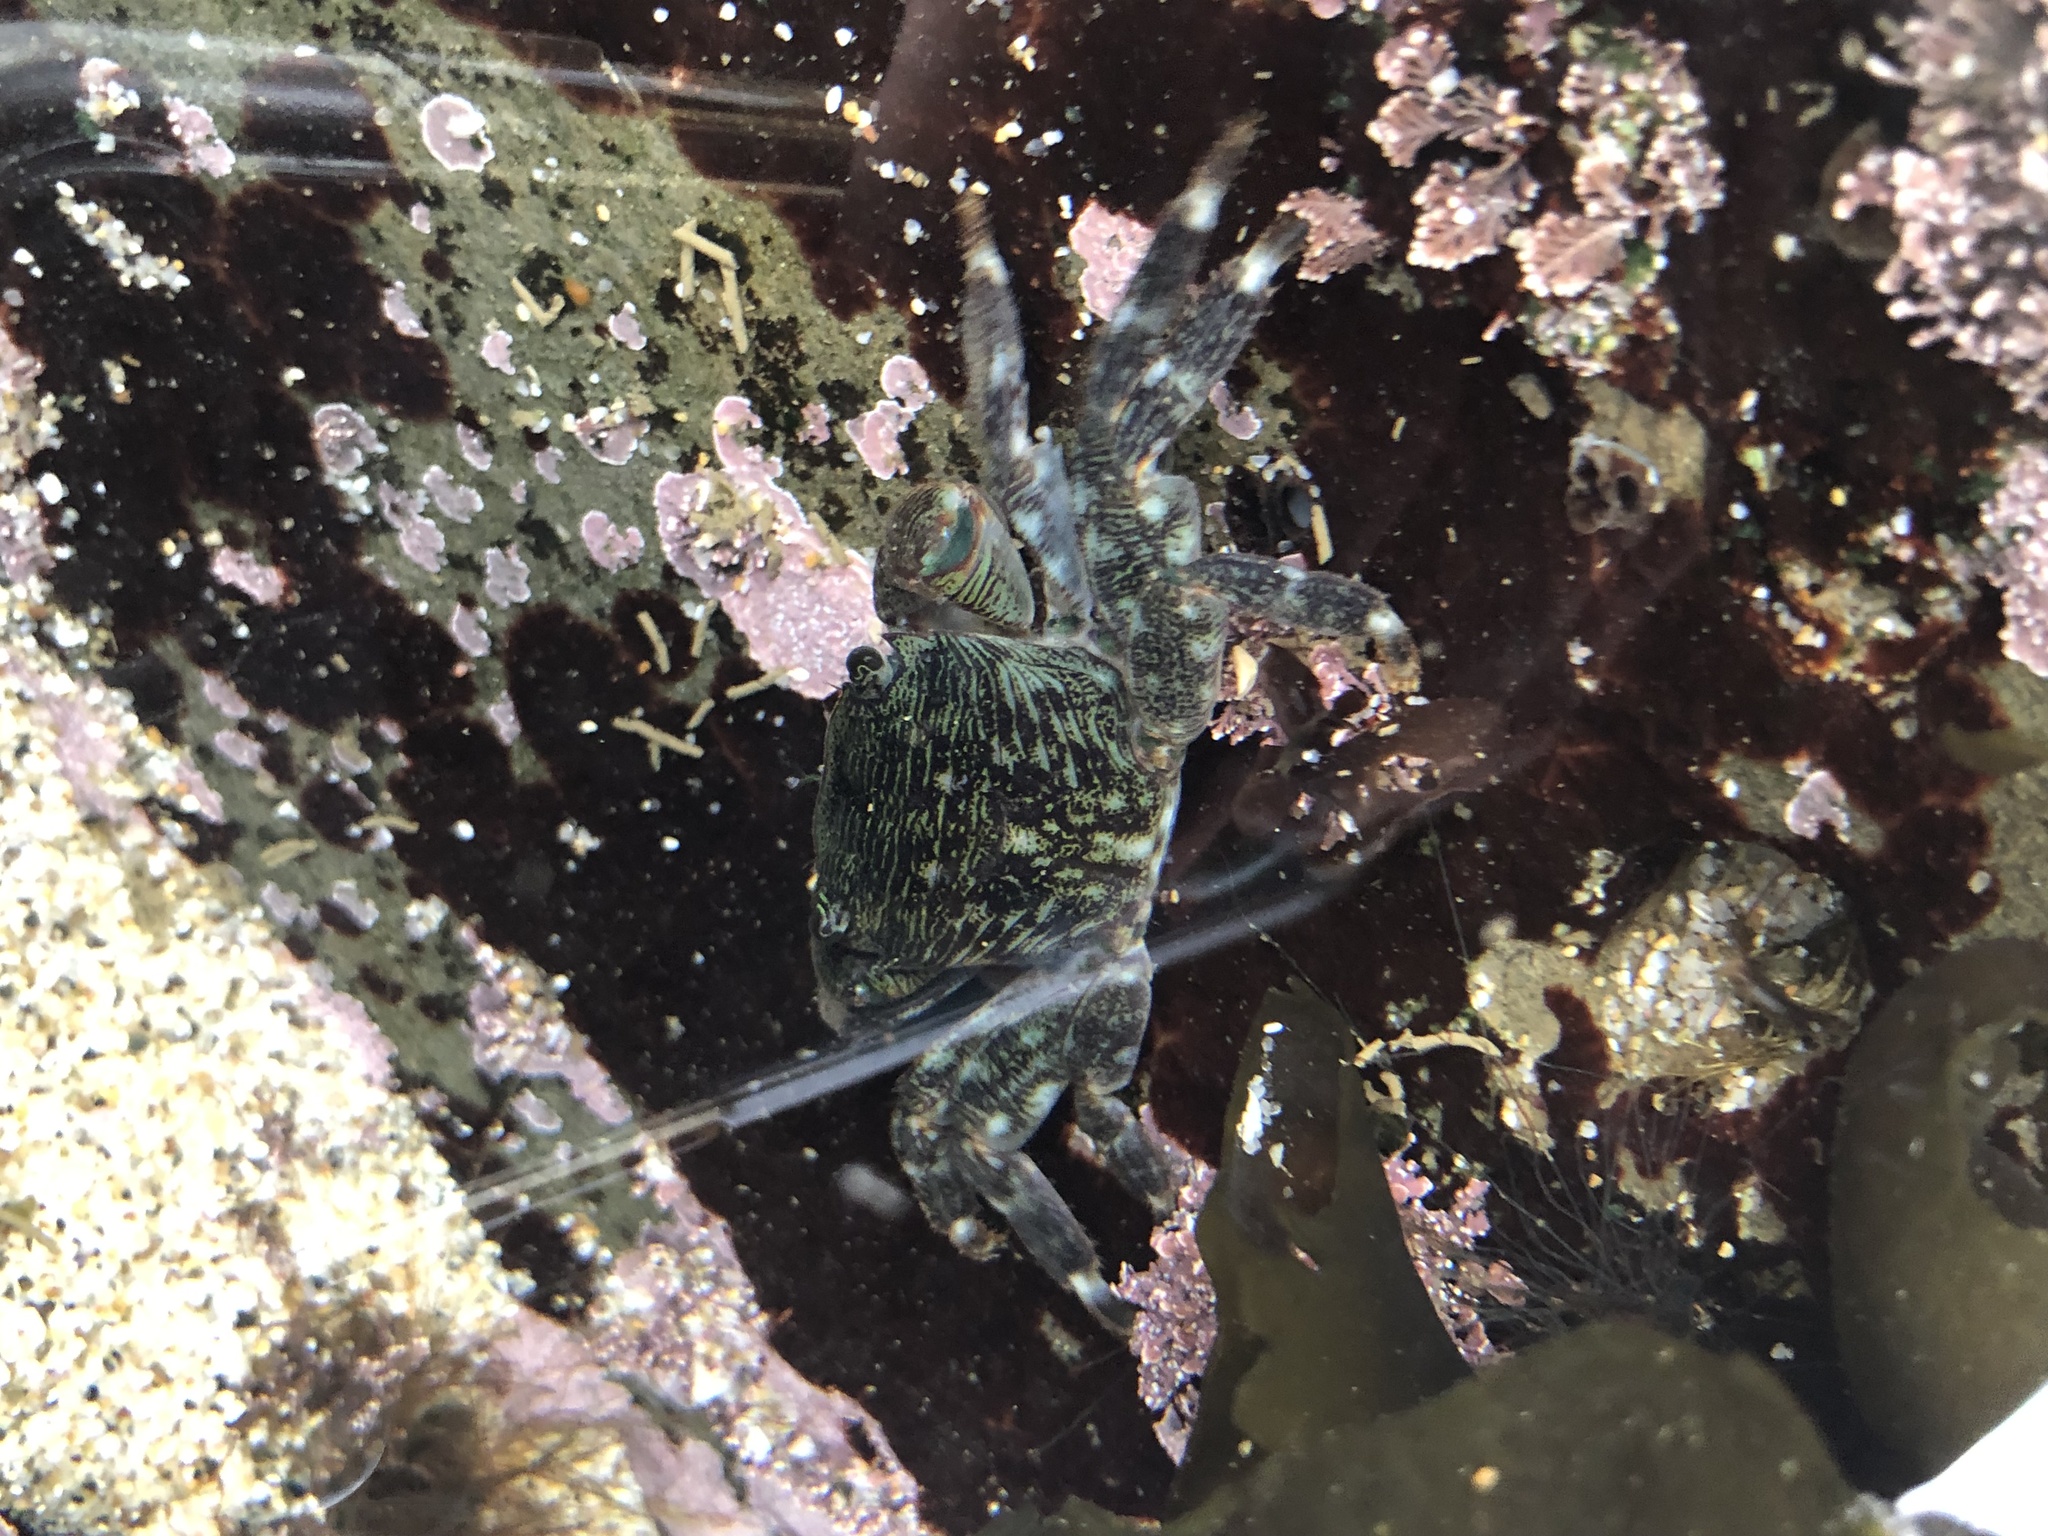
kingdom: Animalia
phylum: Arthropoda
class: Malacostraca
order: Decapoda
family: Grapsidae
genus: Pachygrapsus
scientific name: Pachygrapsus crassipes
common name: Striped shore crab
